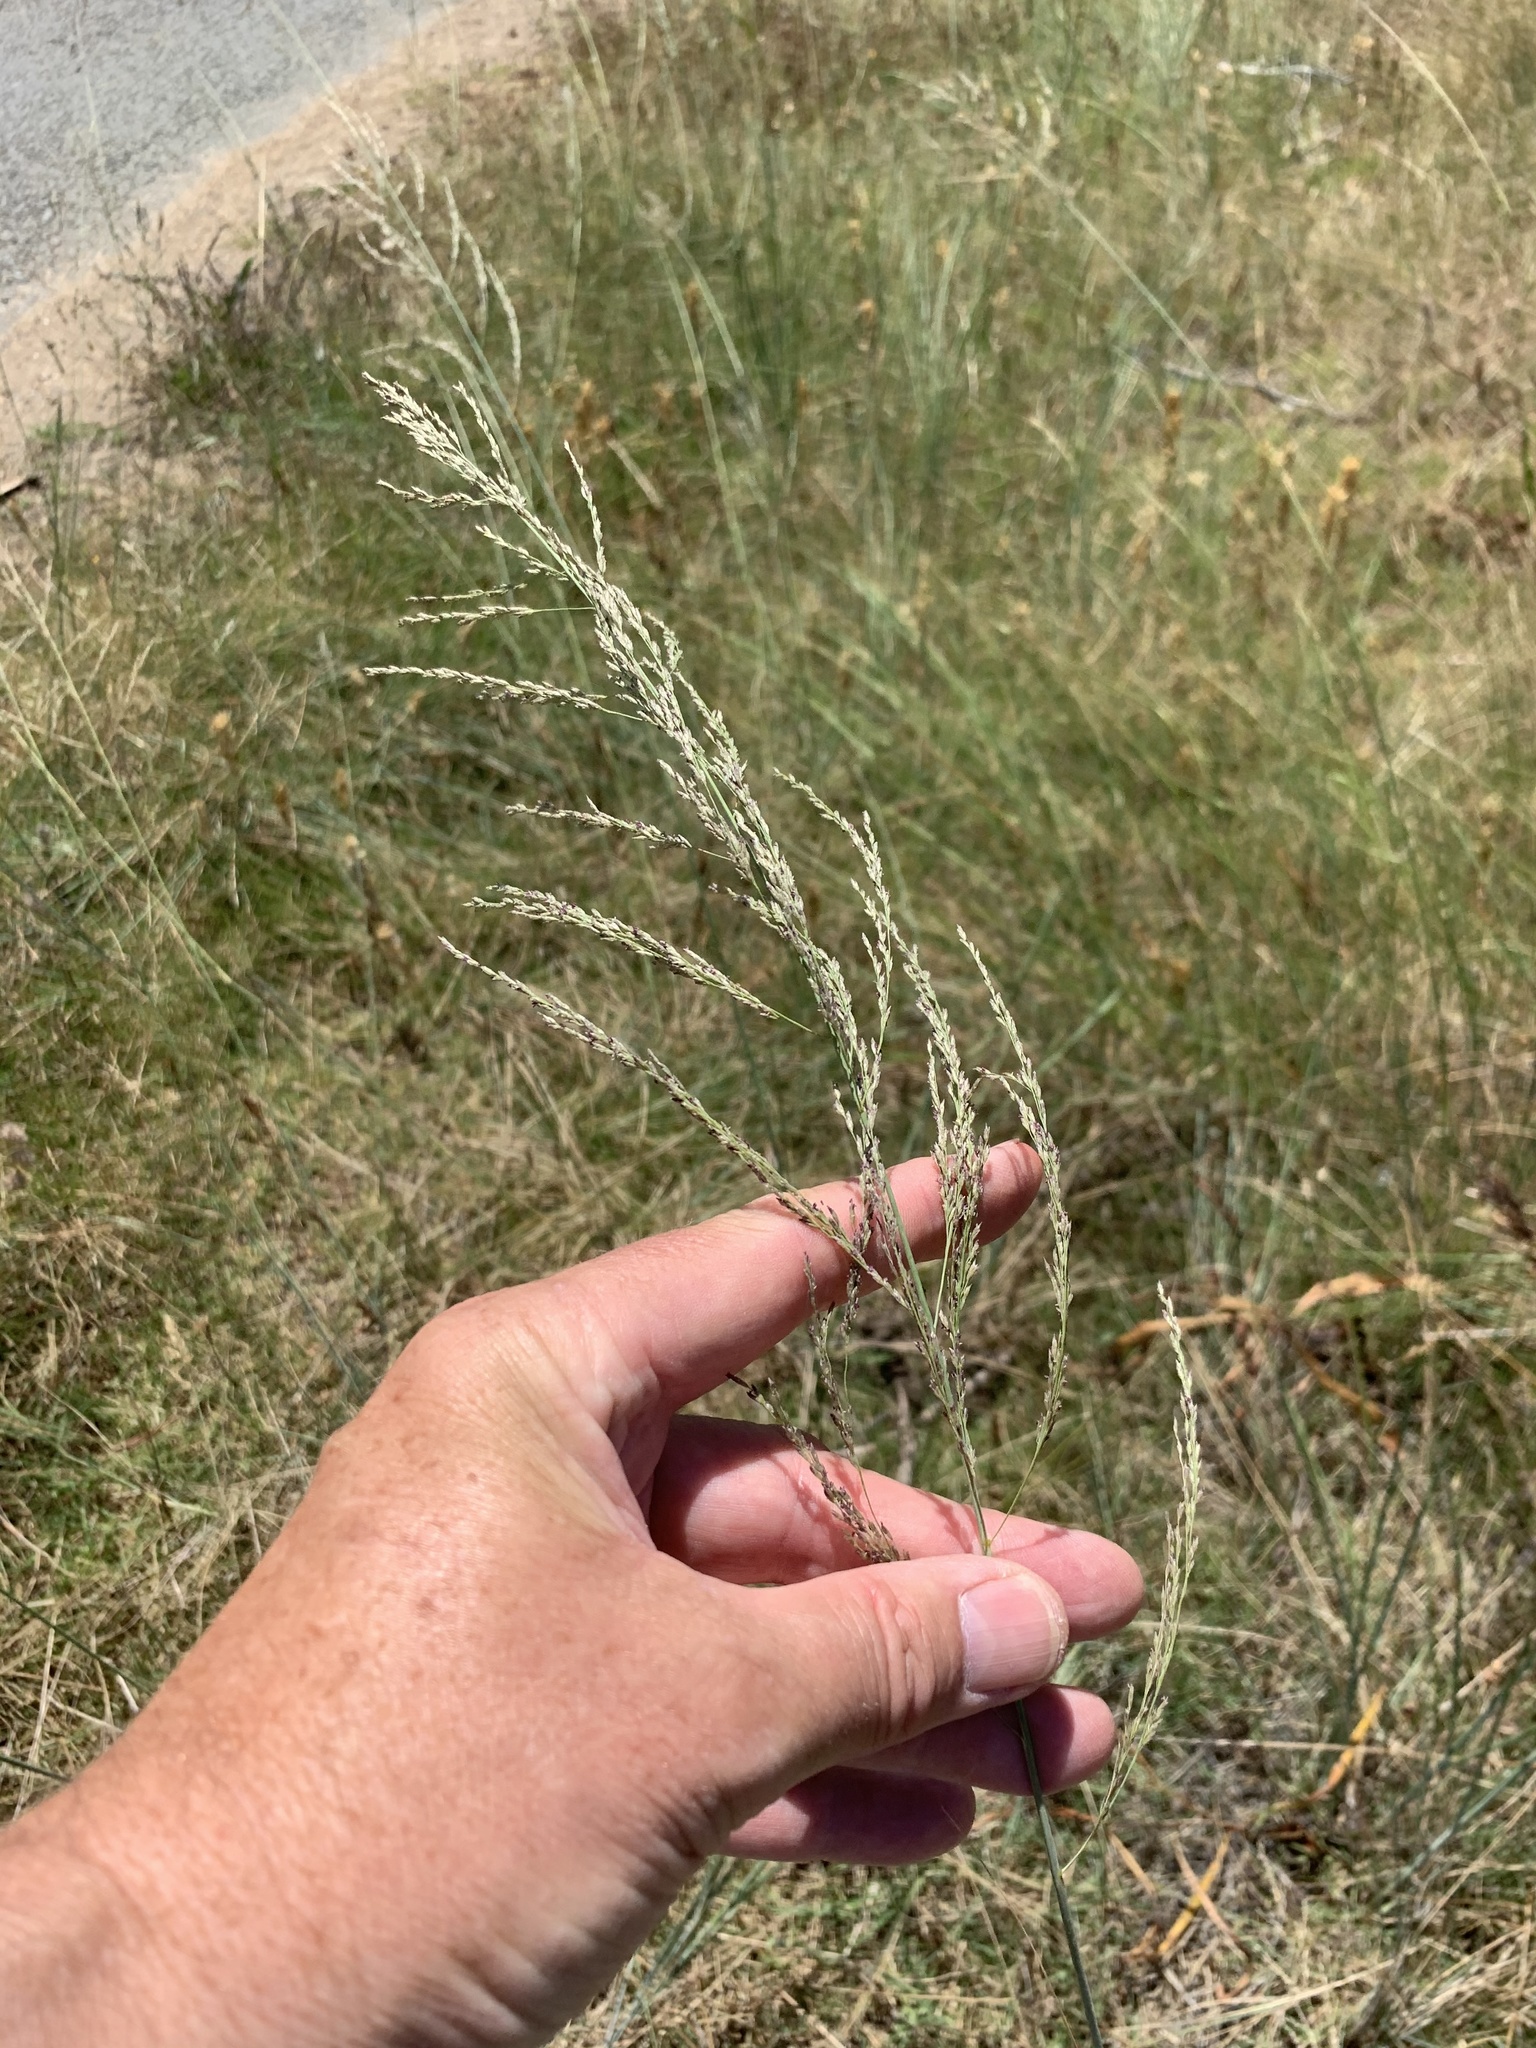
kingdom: Plantae
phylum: Tracheophyta
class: Liliopsida
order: Poales
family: Poaceae
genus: Eragrostis
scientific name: Eragrostis curvula
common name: African love-grass
